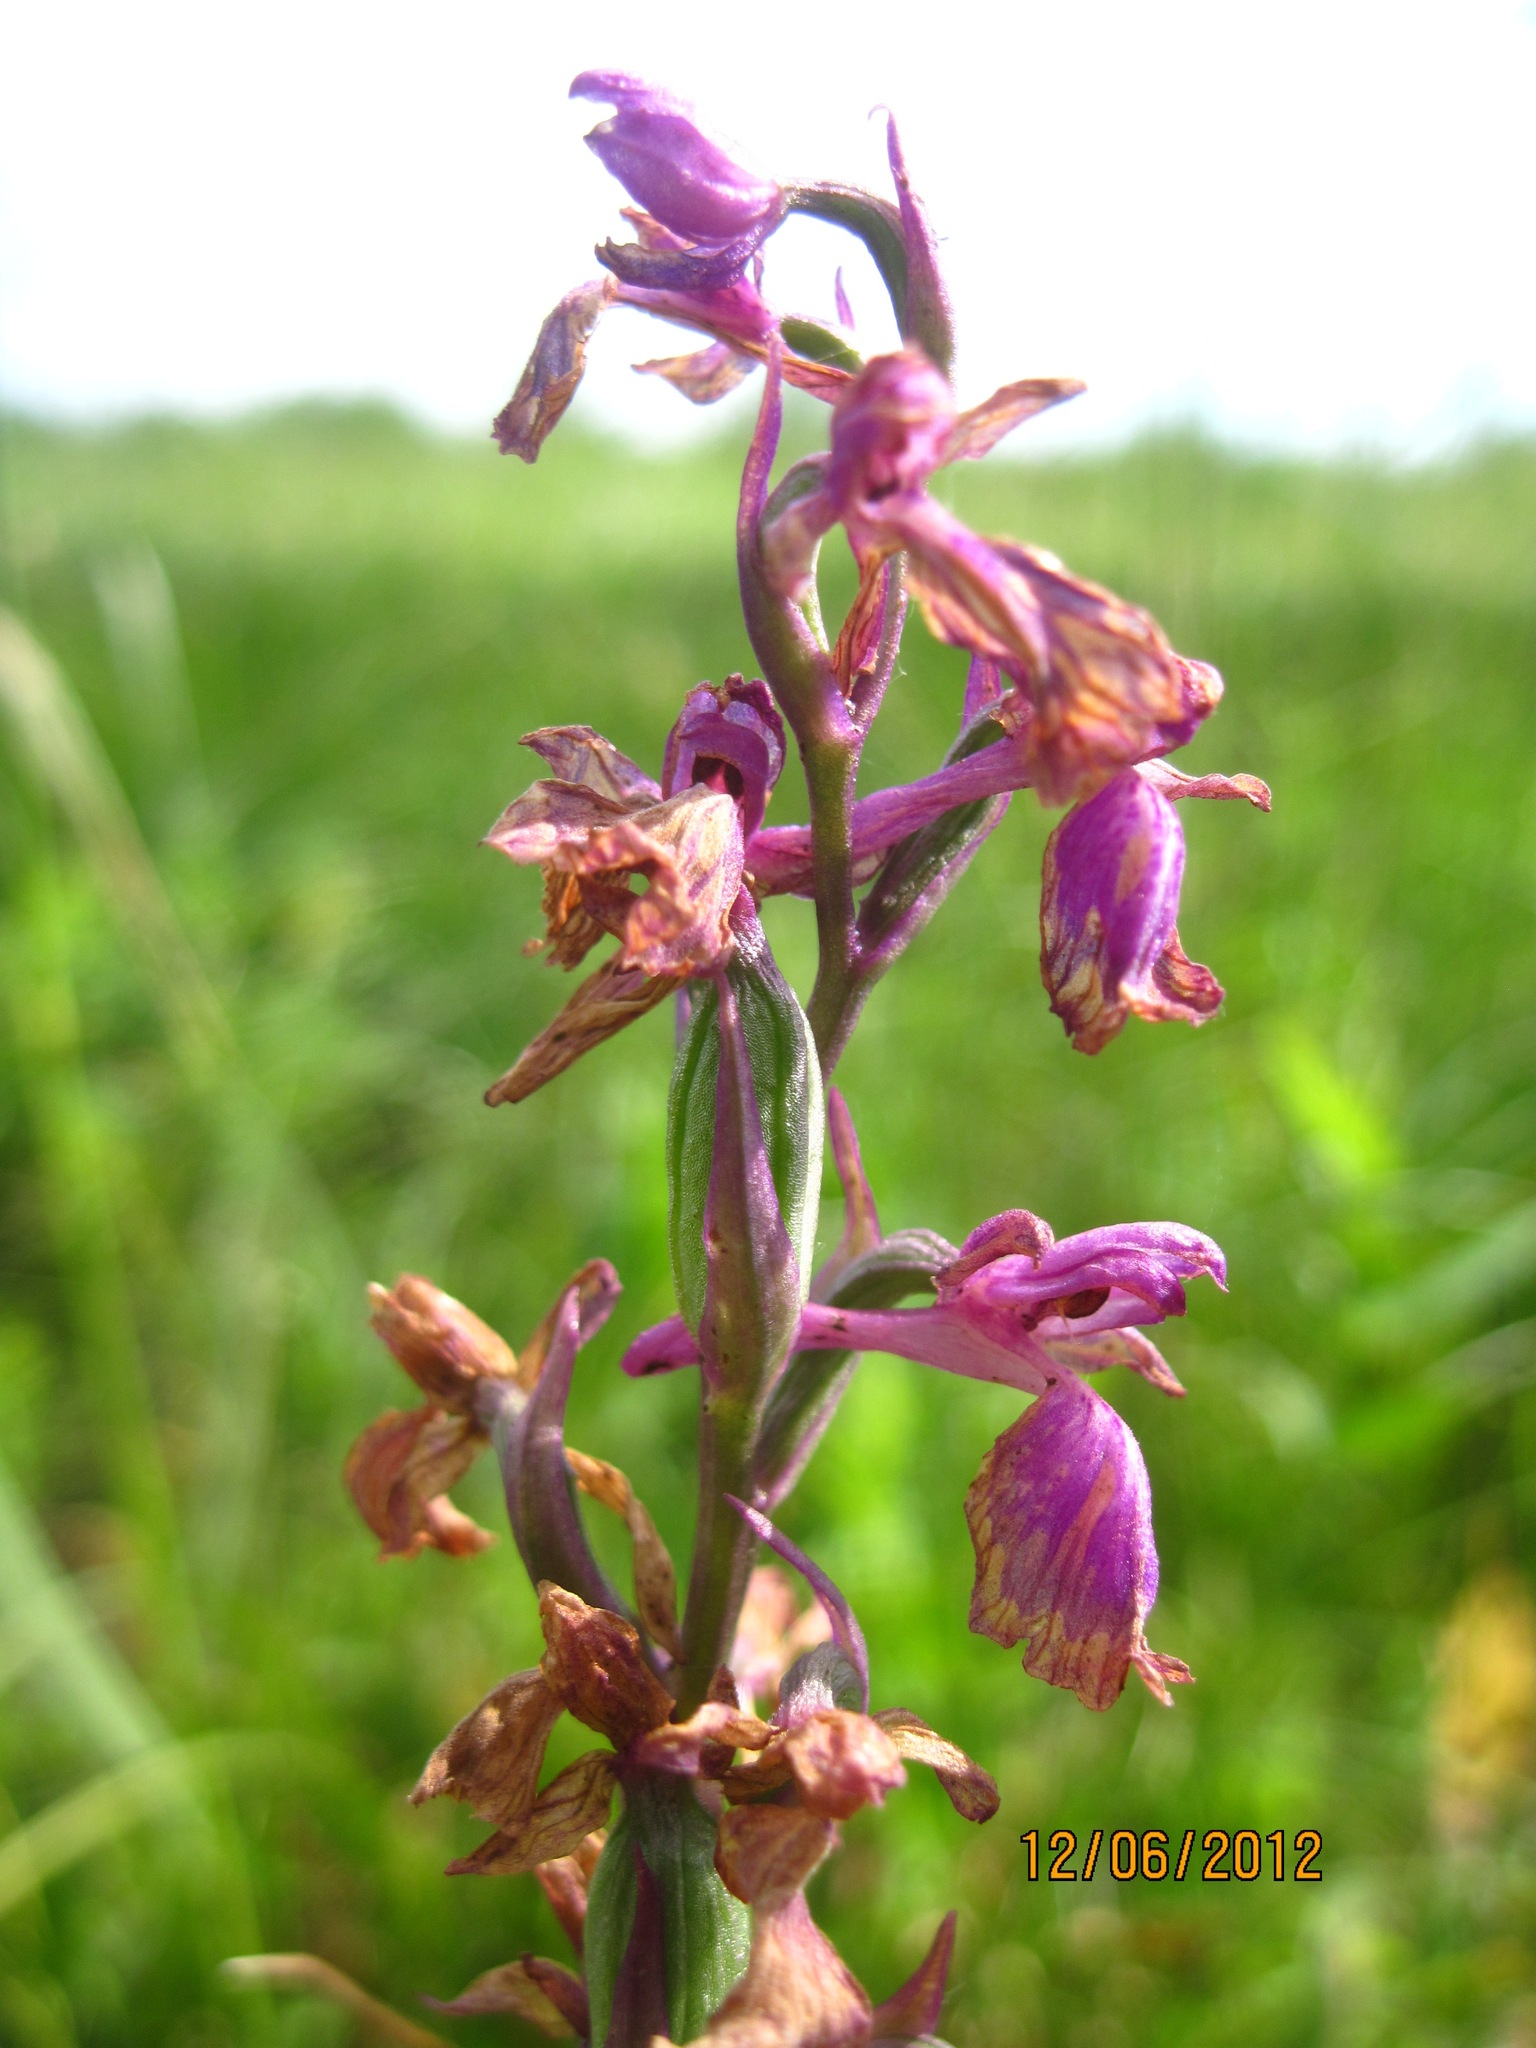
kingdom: Plantae
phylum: Tracheophyta
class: Liliopsida
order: Asparagales
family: Orchidaceae
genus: Anacamptis
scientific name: Anacamptis palustris
